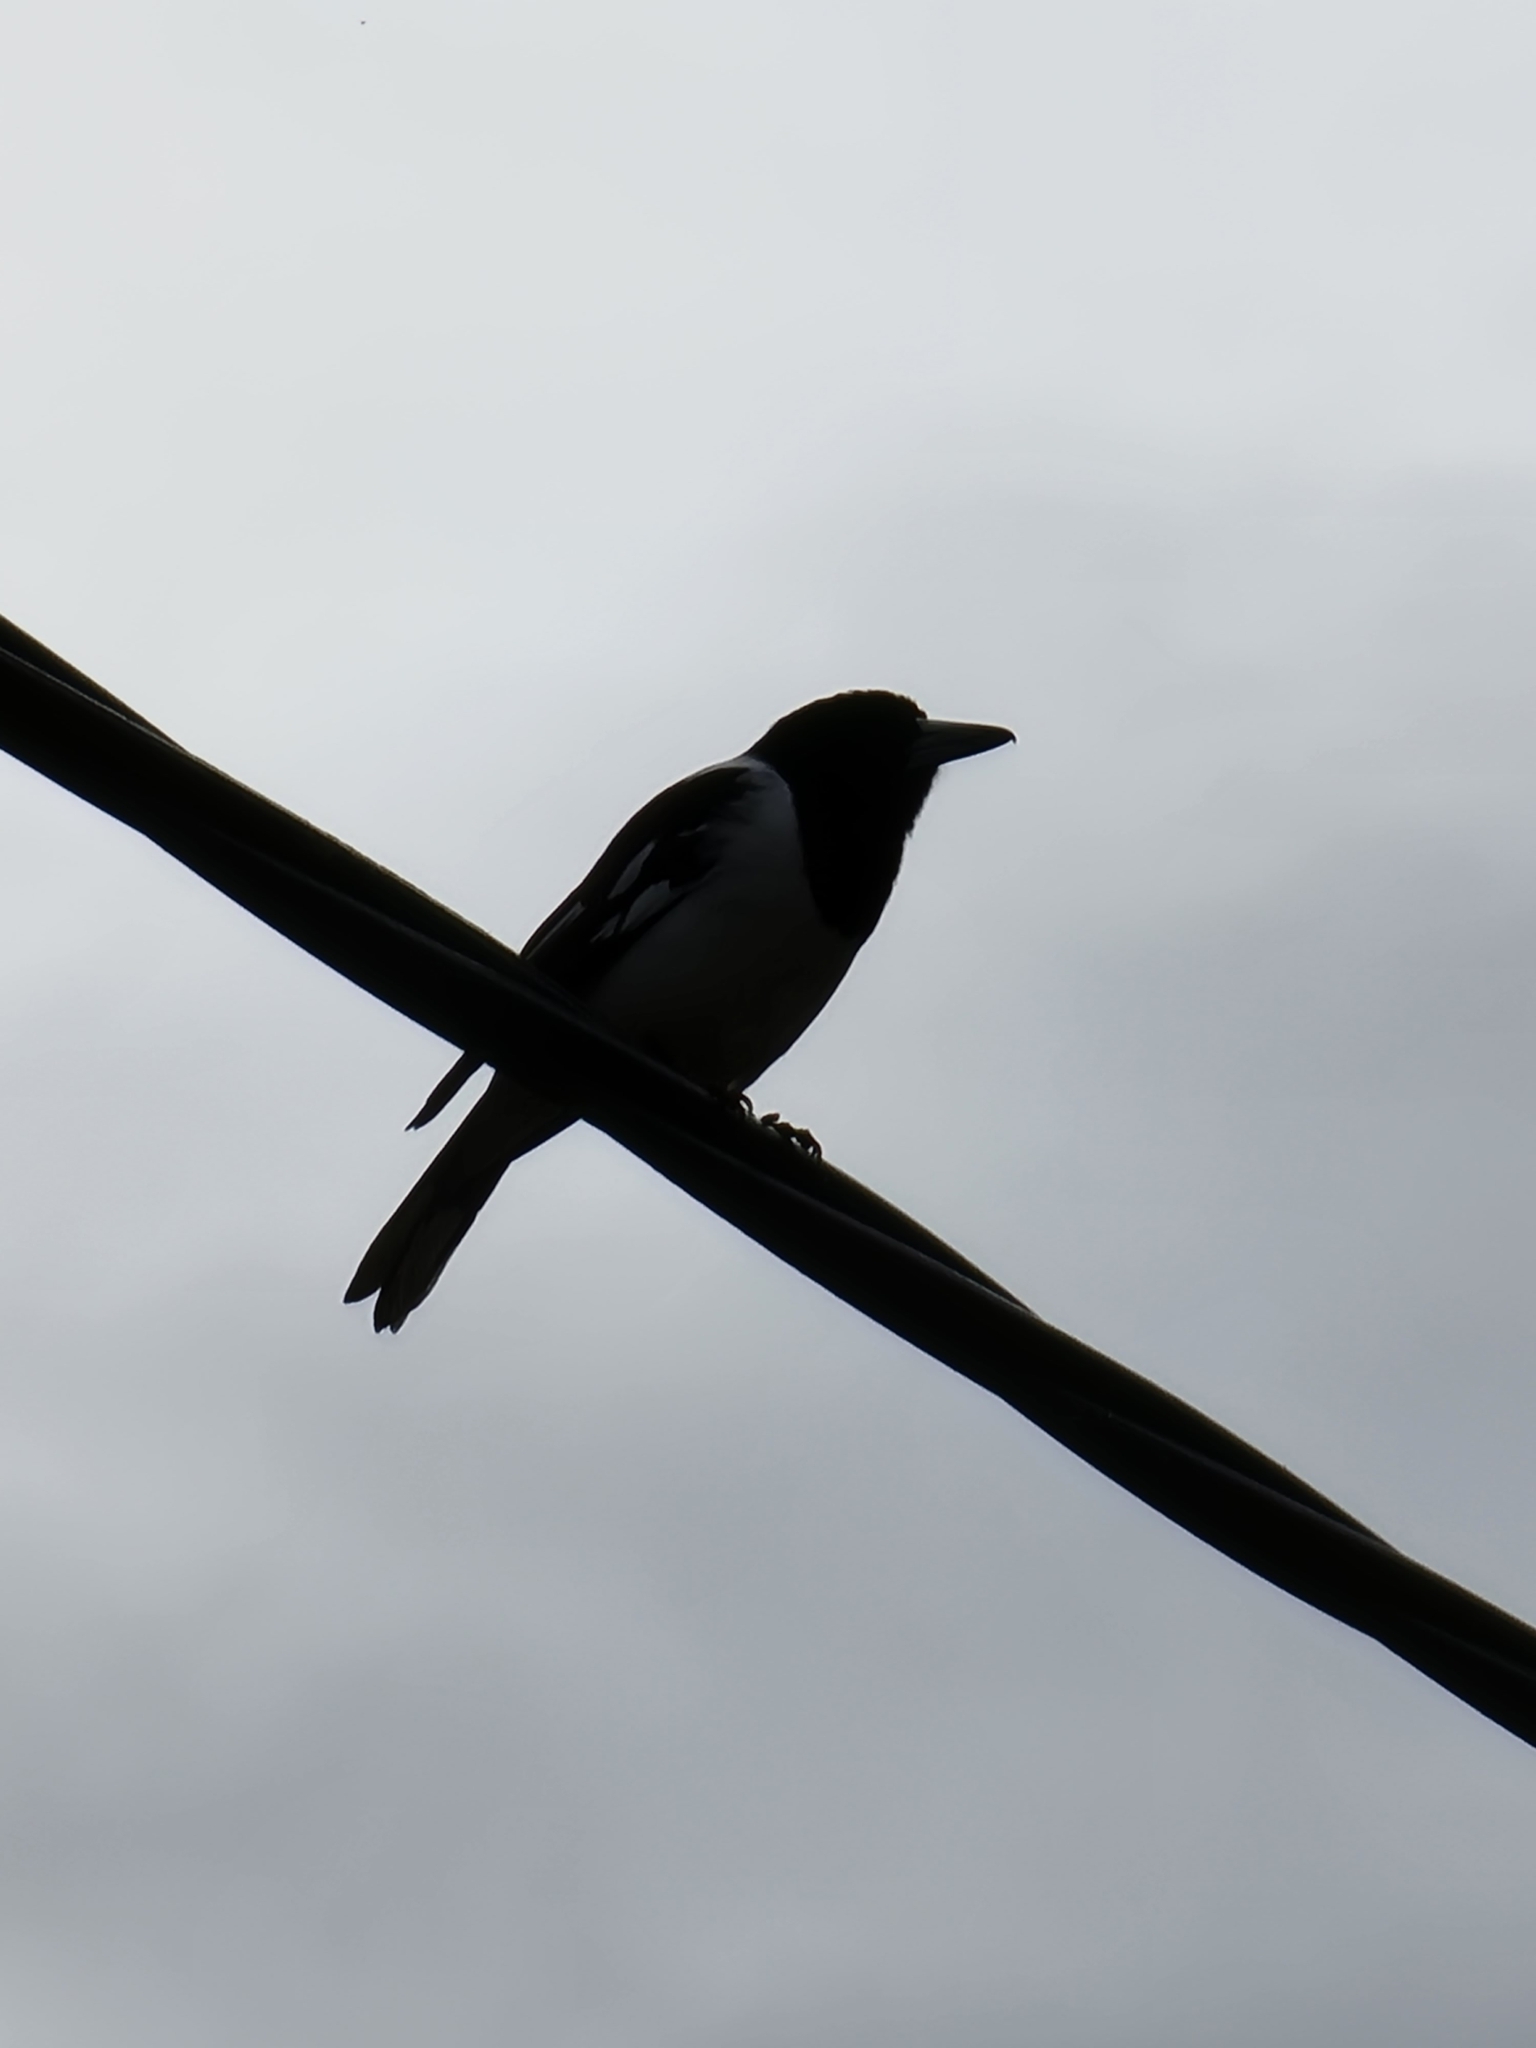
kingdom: Animalia
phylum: Chordata
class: Aves
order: Passeriformes
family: Cracticidae
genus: Cracticus
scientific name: Cracticus nigrogularis
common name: Pied butcherbird
